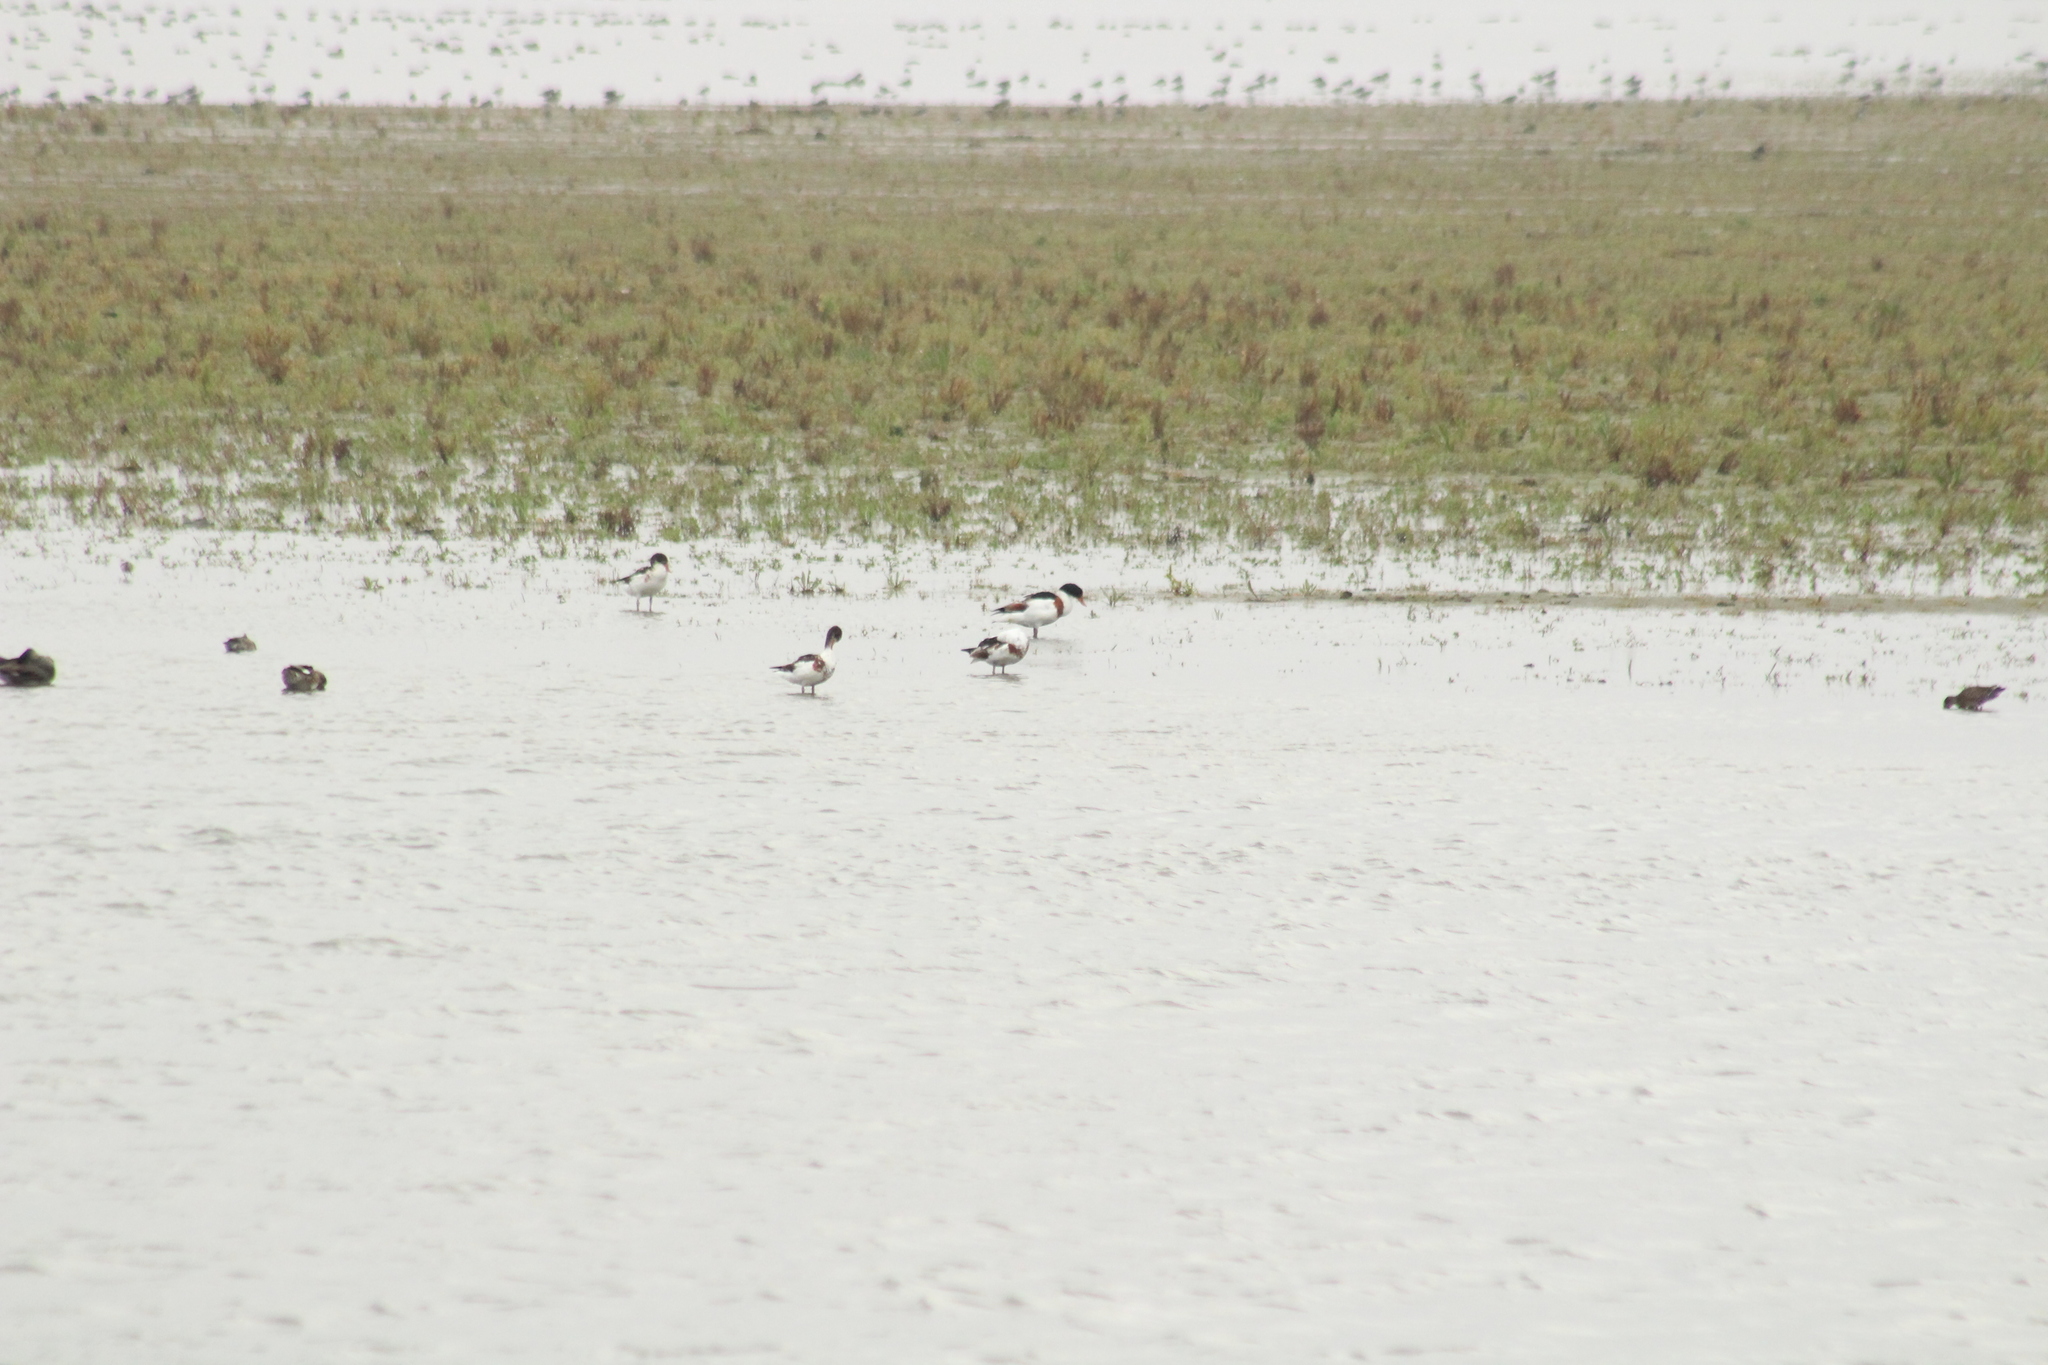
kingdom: Animalia
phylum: Chordata
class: Aves
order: Anseriformes
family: Anatidae
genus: Tadorna
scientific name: Tadorna tadorna
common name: Common shelduck
